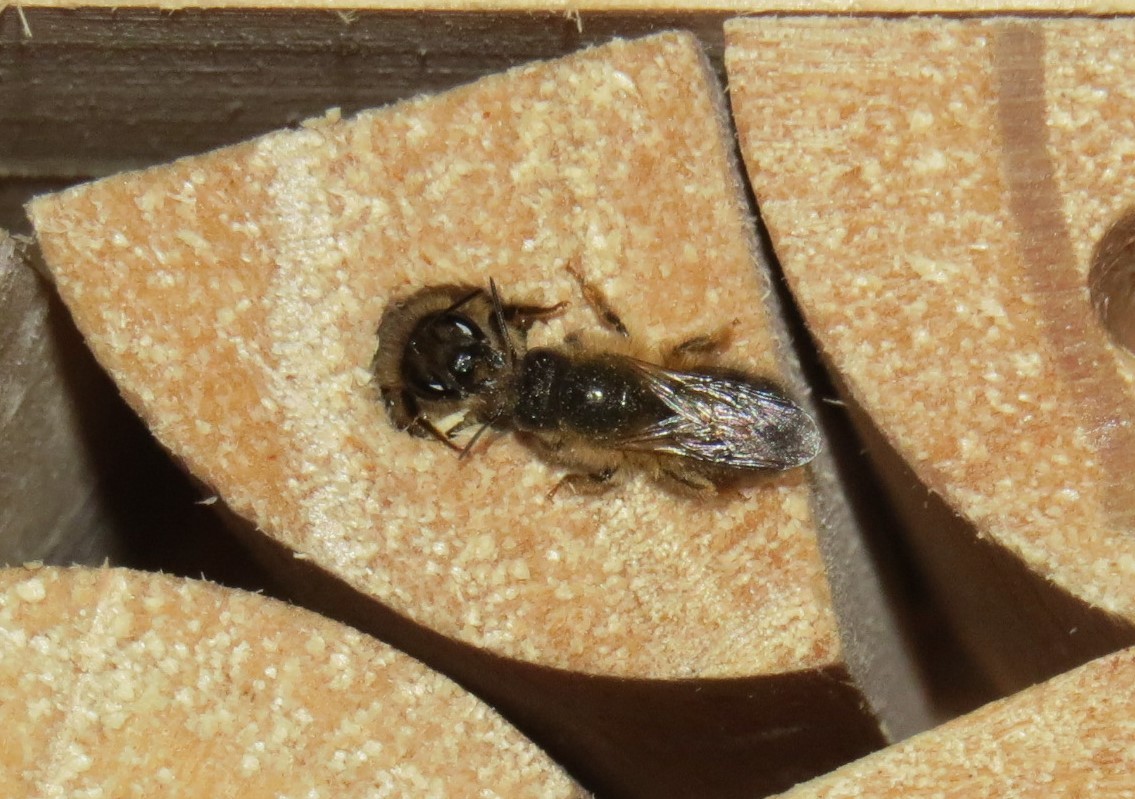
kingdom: Animalia
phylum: Arthropoda
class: Insecta
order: Hymenoptera
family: Megachilidae
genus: Osmia
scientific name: Osmia taurus
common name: Taurus mason bee
